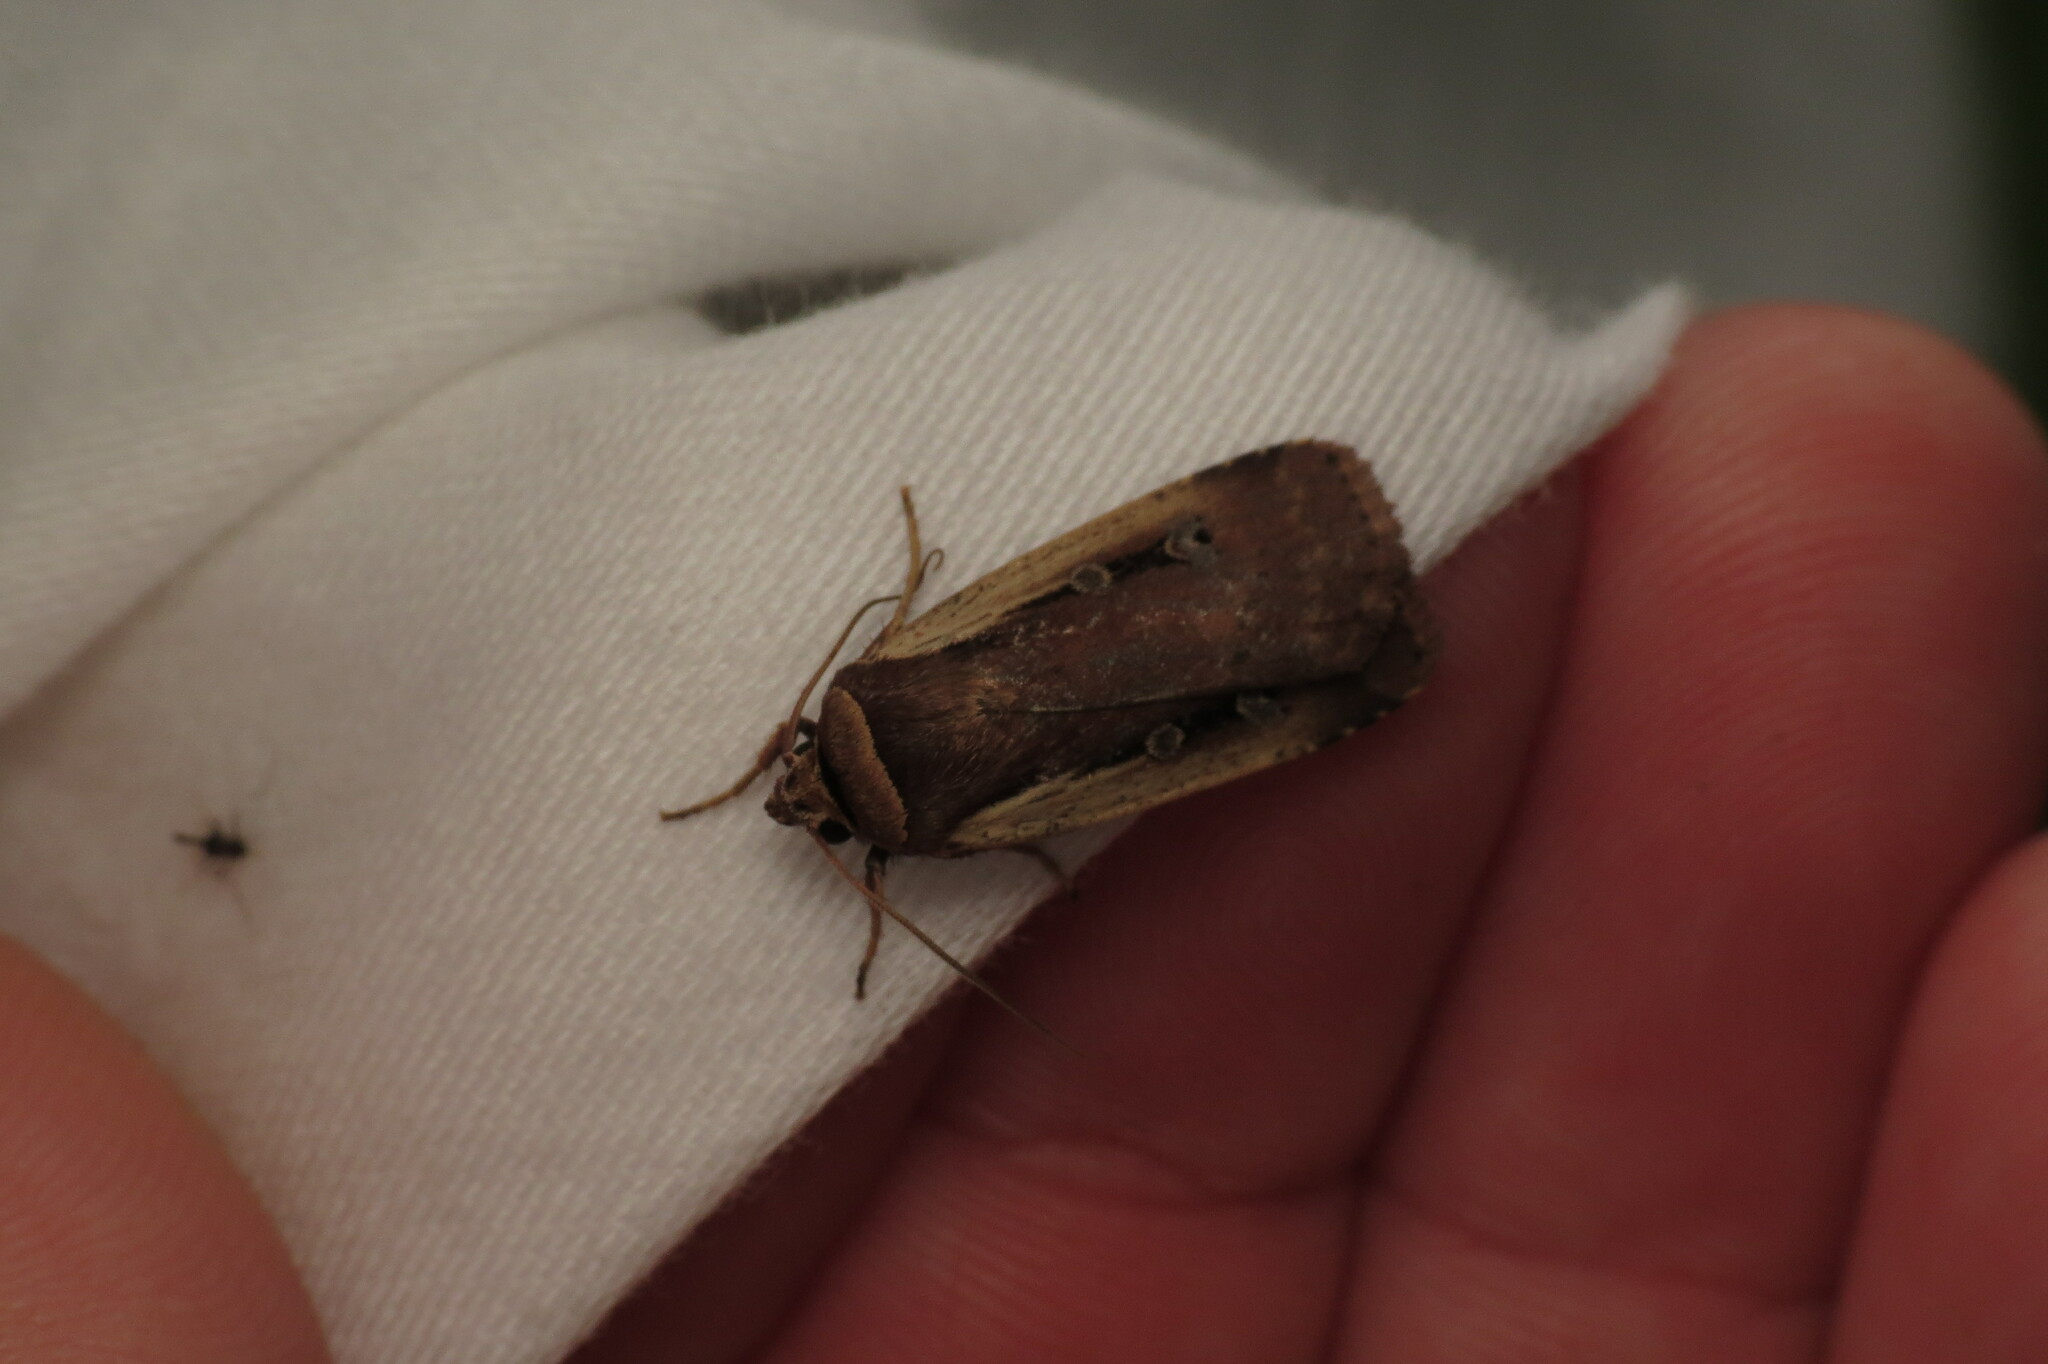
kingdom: Animalia
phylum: Arthropoda
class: Insecta
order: Lepidoptera
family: Noctuidae
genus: Ochropleura
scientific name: Ochropleura implecta
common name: Flame-shouldered dart
